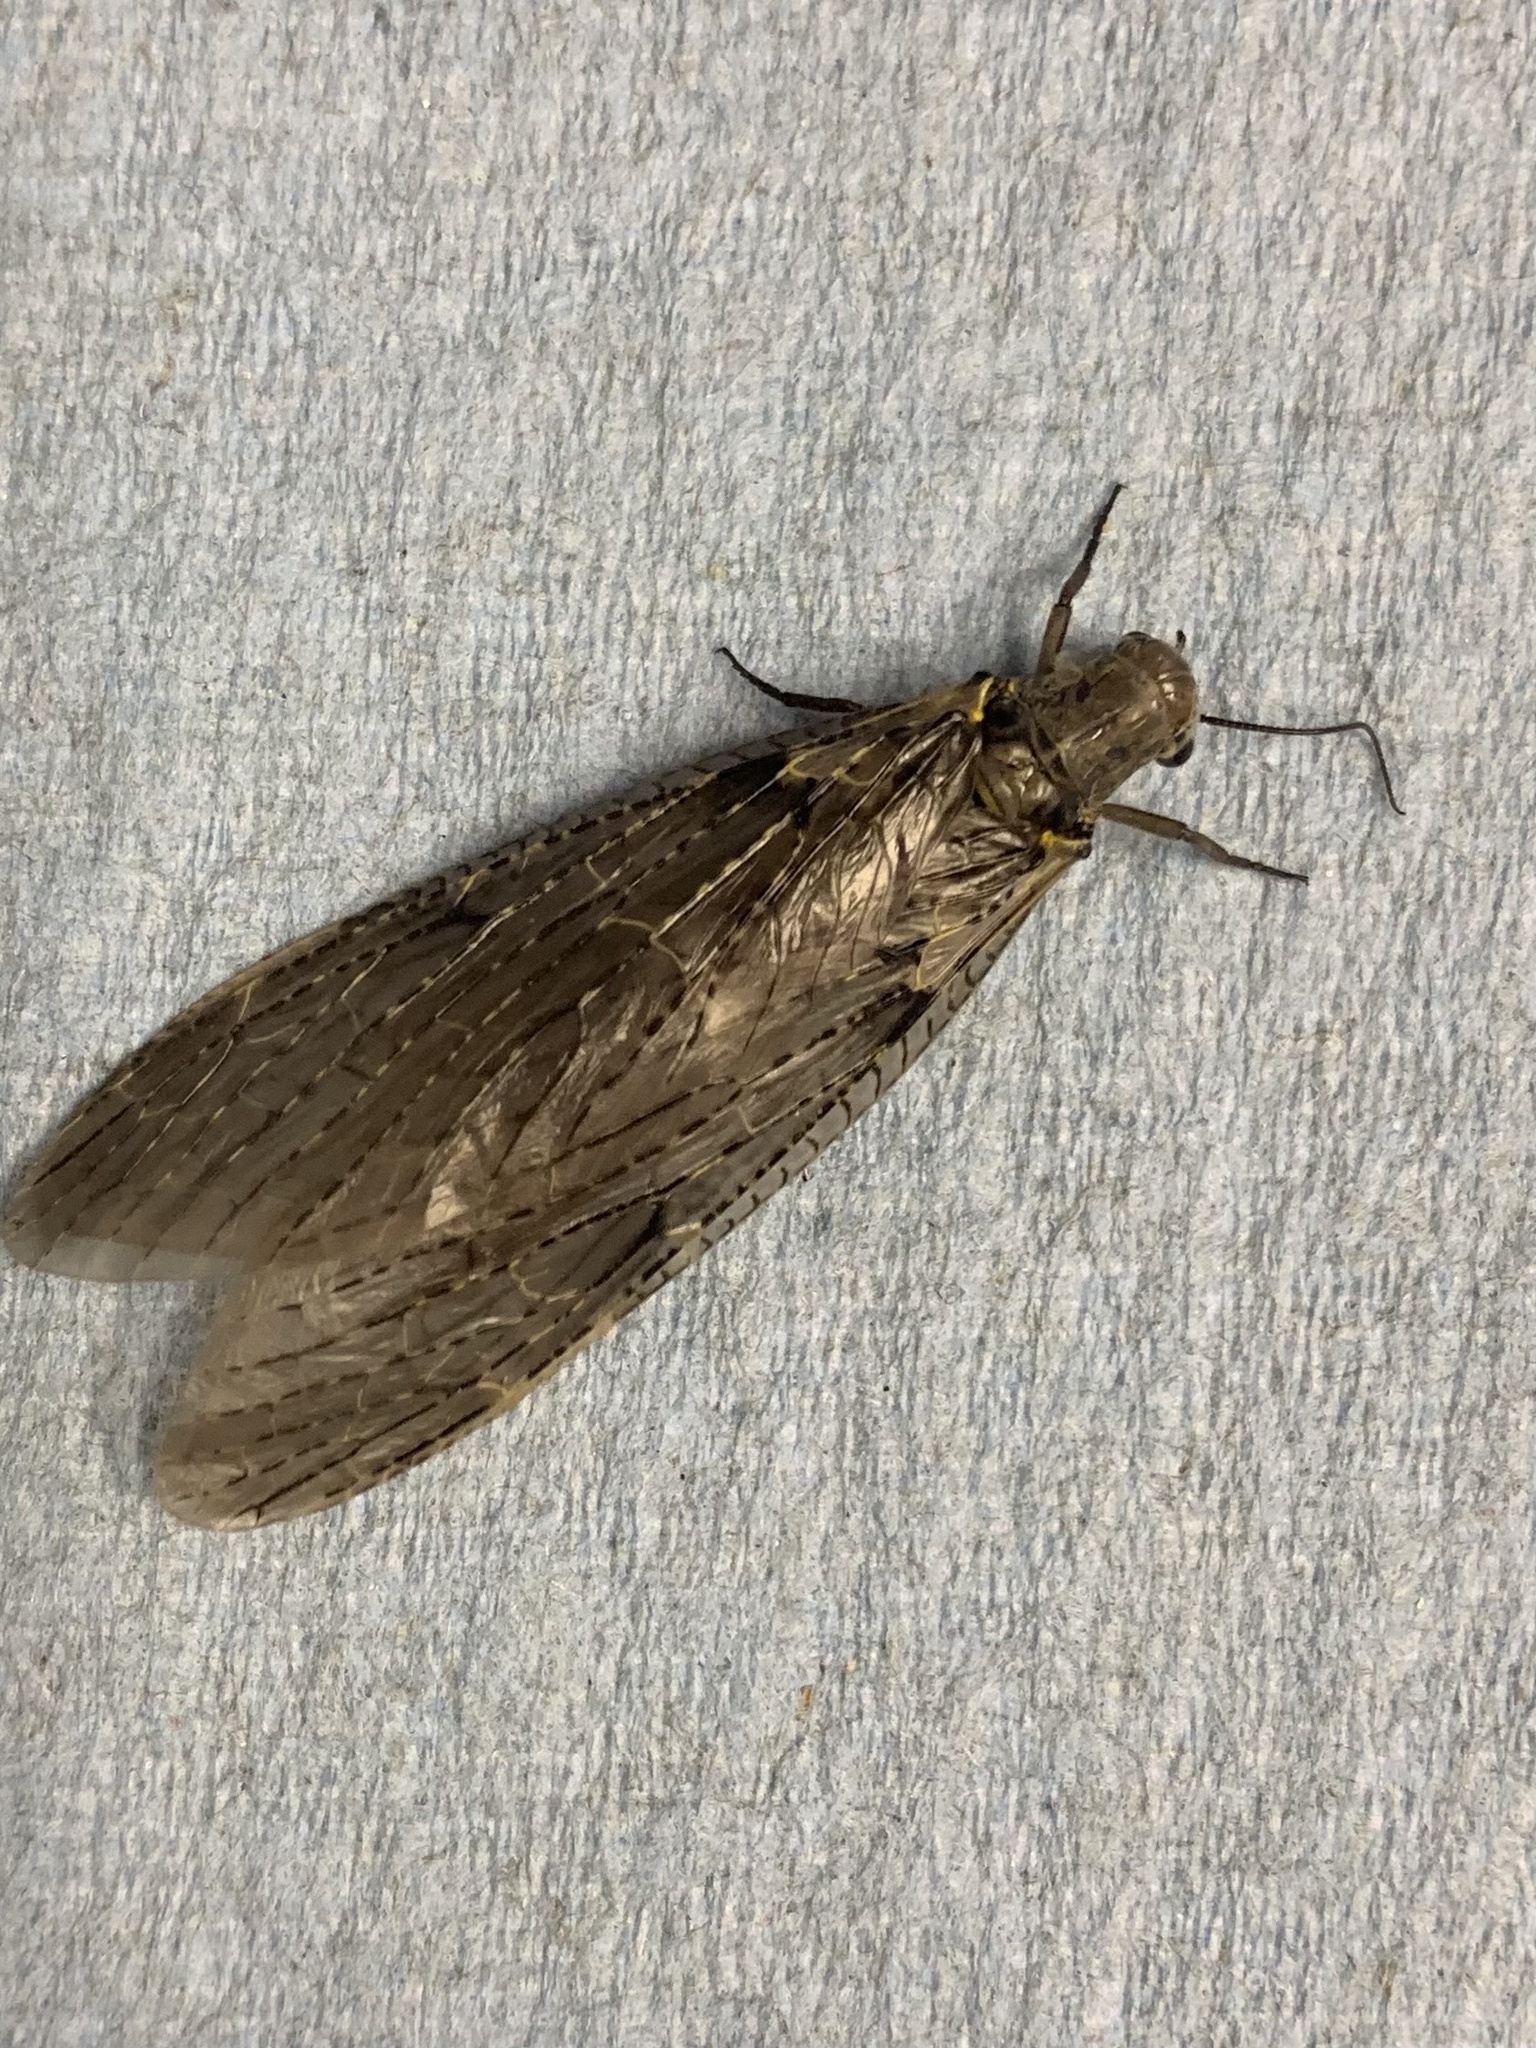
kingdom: Animalia
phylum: Arthropoda
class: Insecta
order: Megaloptera
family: Corydalidae
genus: Chauliodes
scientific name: Chauliodes rastricornis
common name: Spring fishfly
